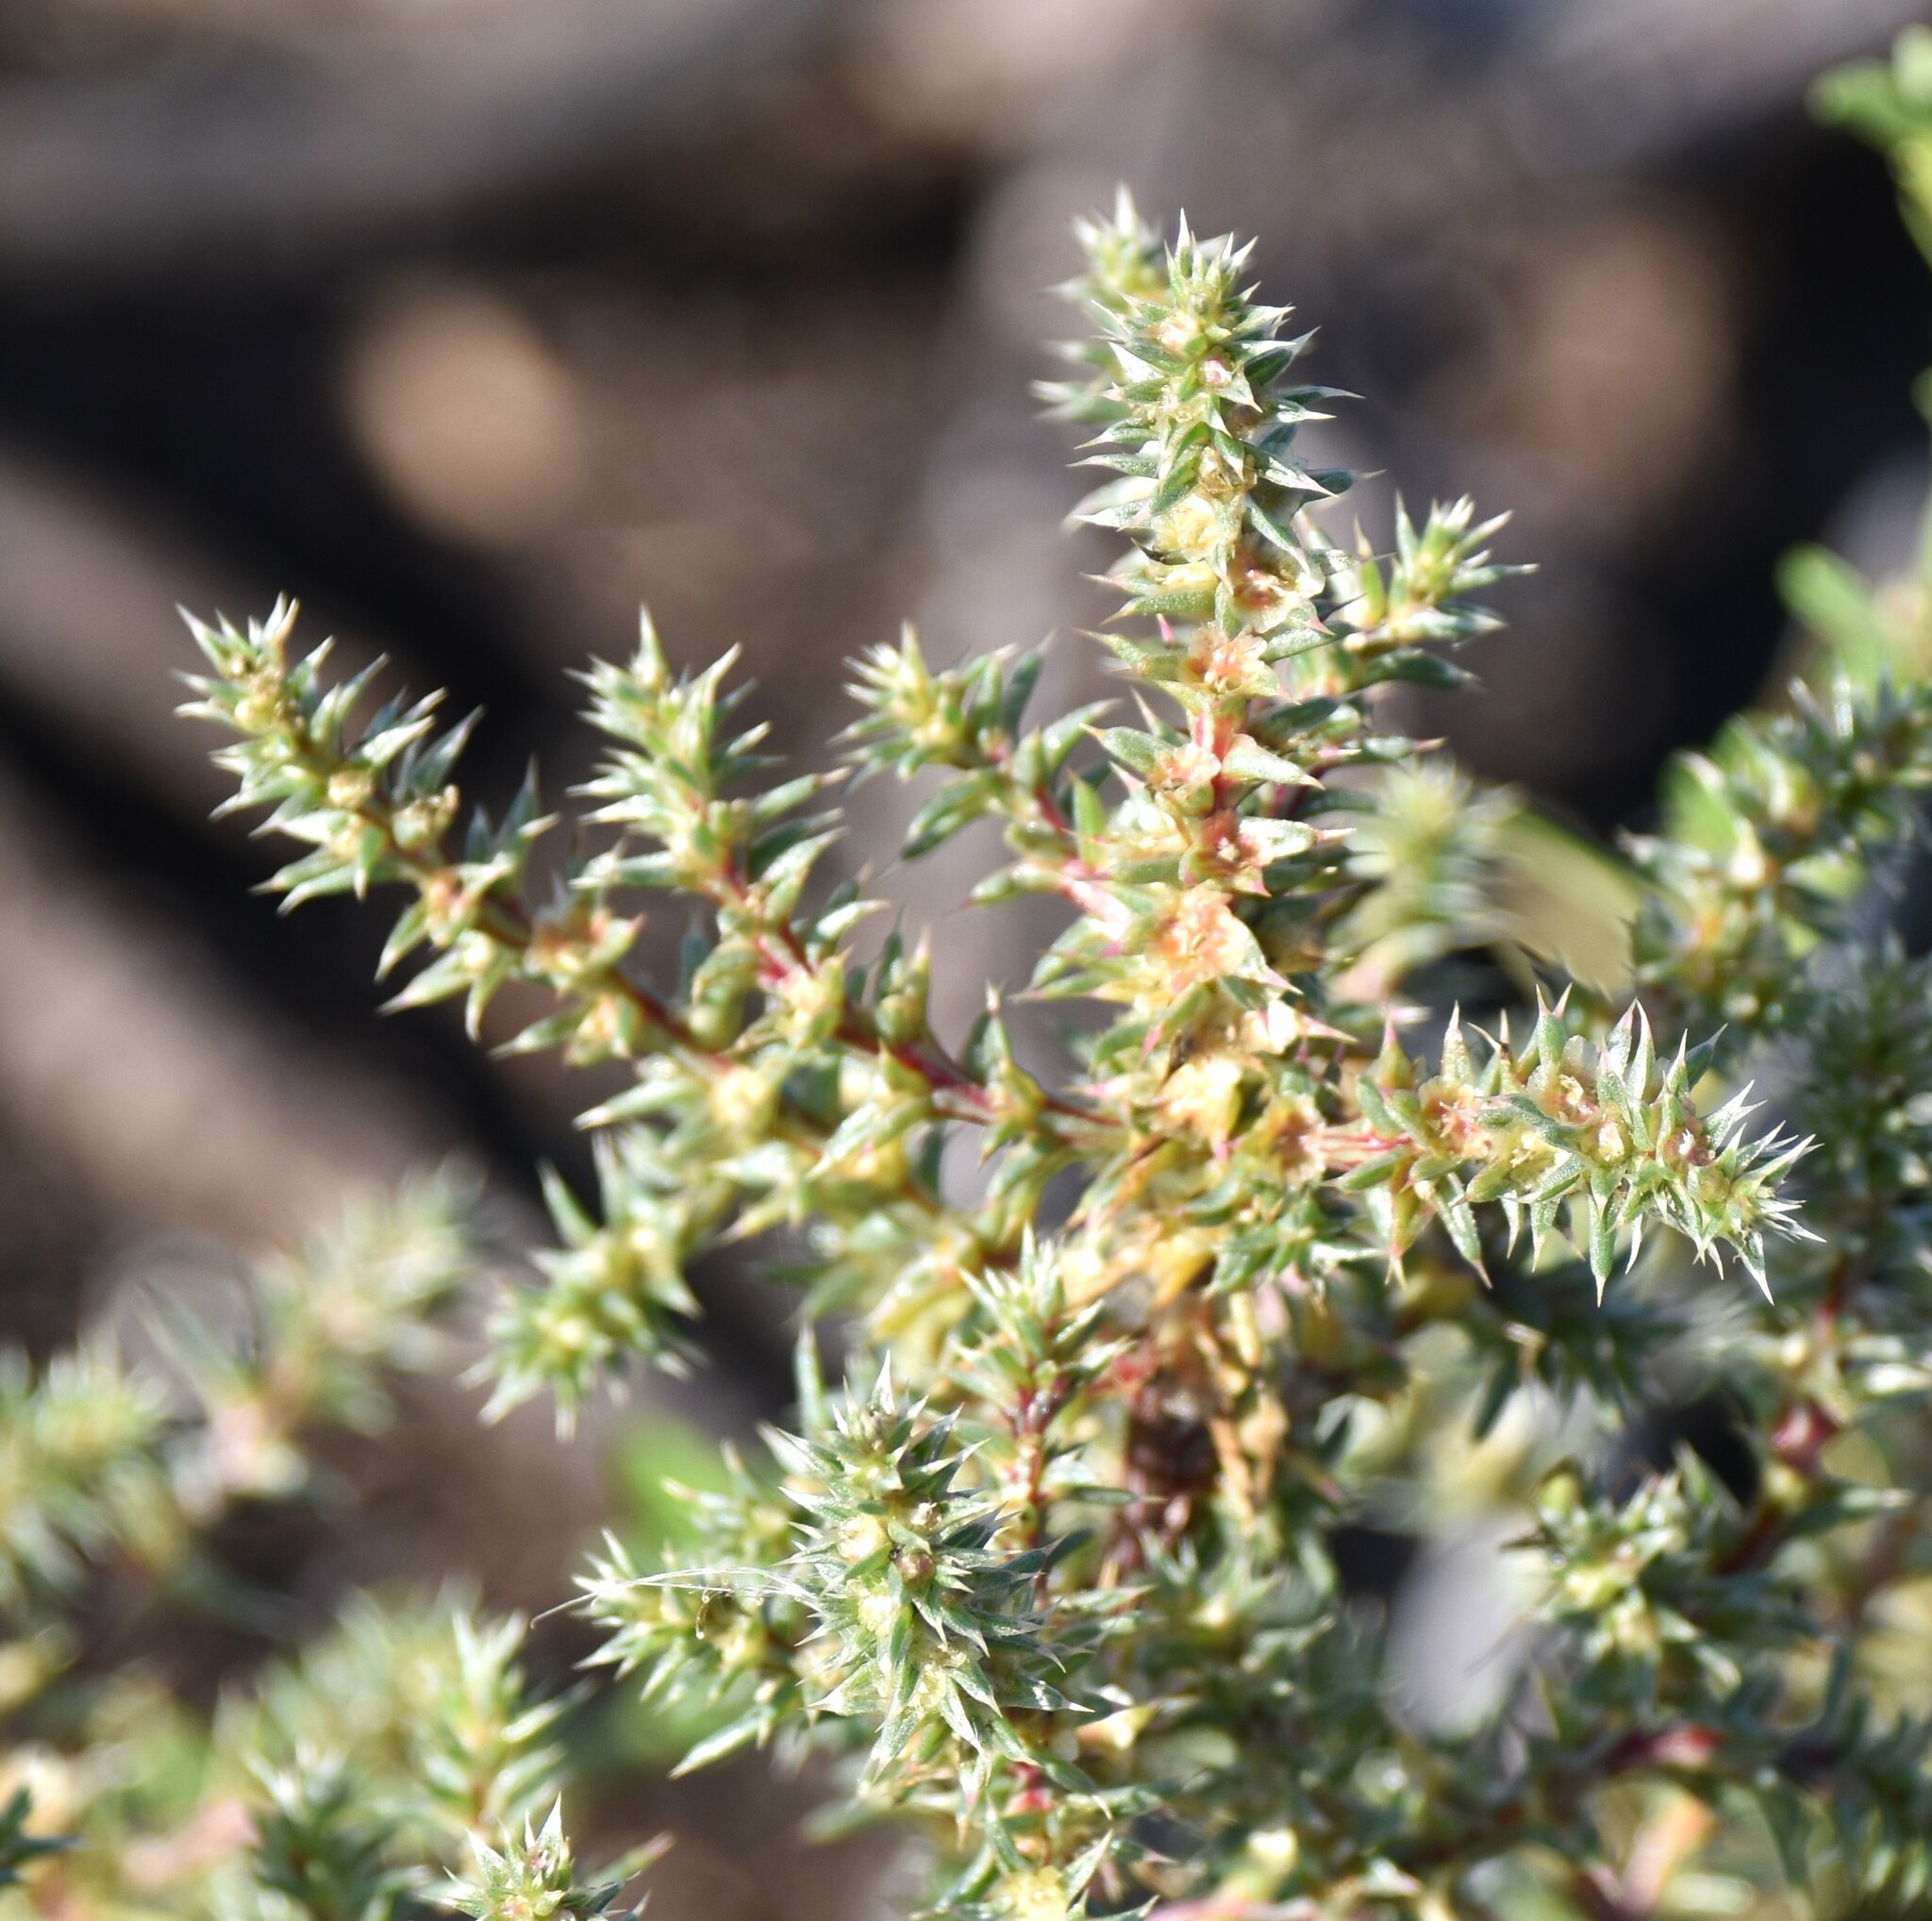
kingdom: Plantae
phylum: Tracheophyta
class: Magnoliopsida
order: Caryophyllales
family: Amaranthaceae
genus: Salsola
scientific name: Salsola tragus
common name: Prickly russian thistle
